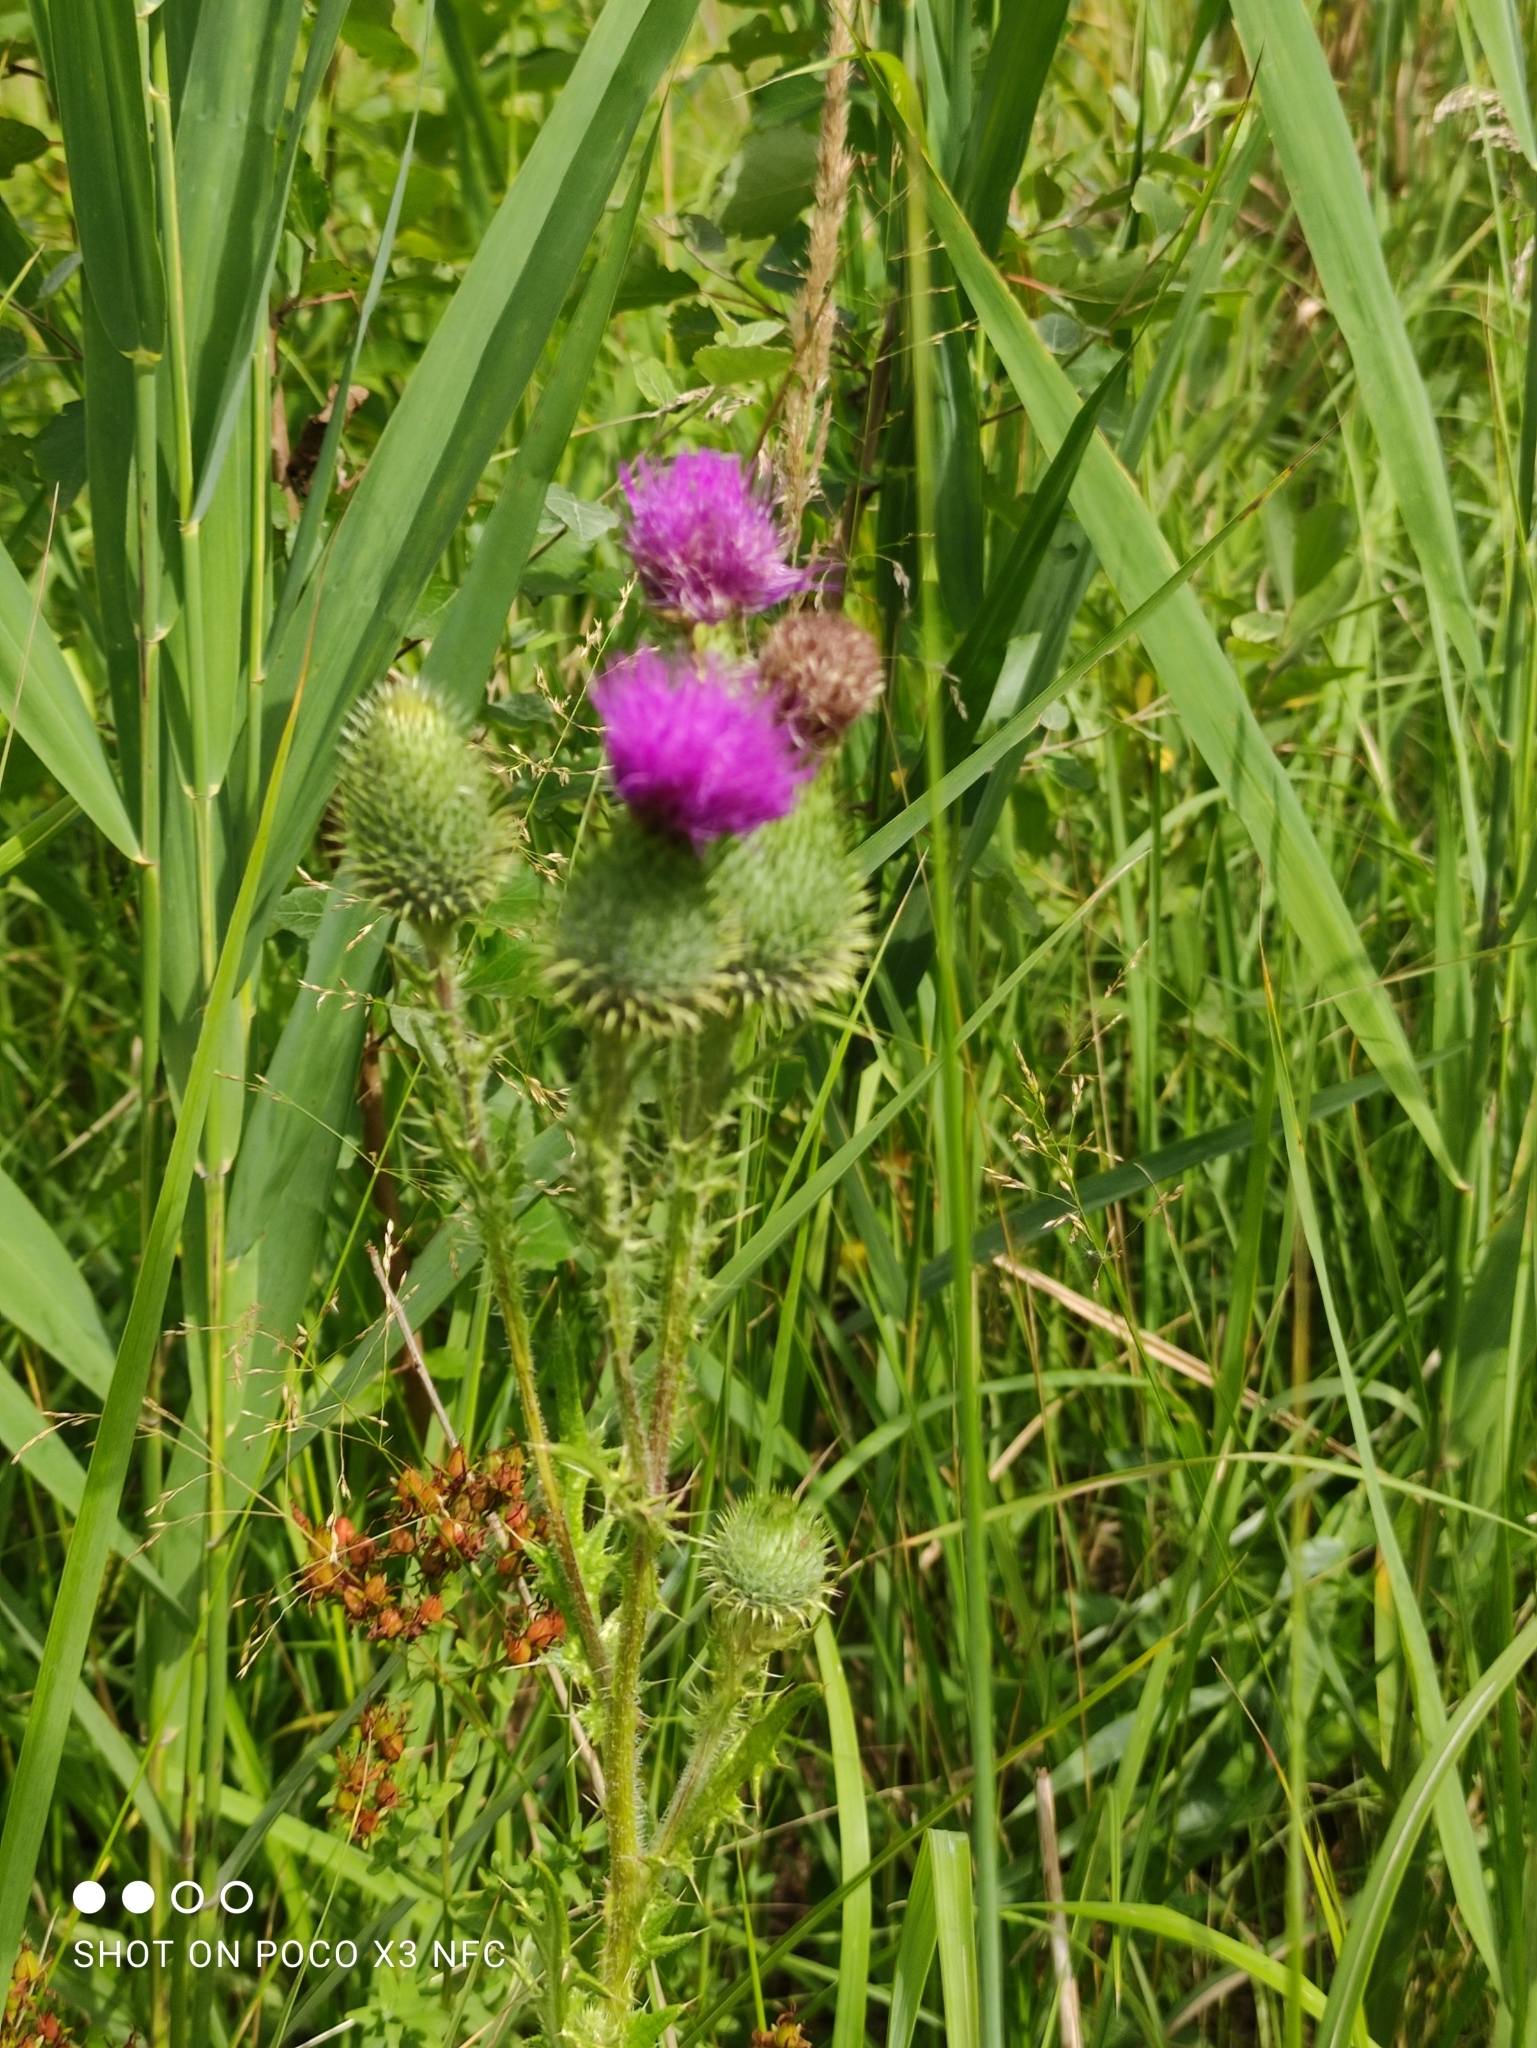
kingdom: Plantae
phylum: Tracheophyta
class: Magnoliopsida
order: Asterales
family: Asteraceae
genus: Cirsium
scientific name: Cirsium vulgare
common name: Bull thistle
